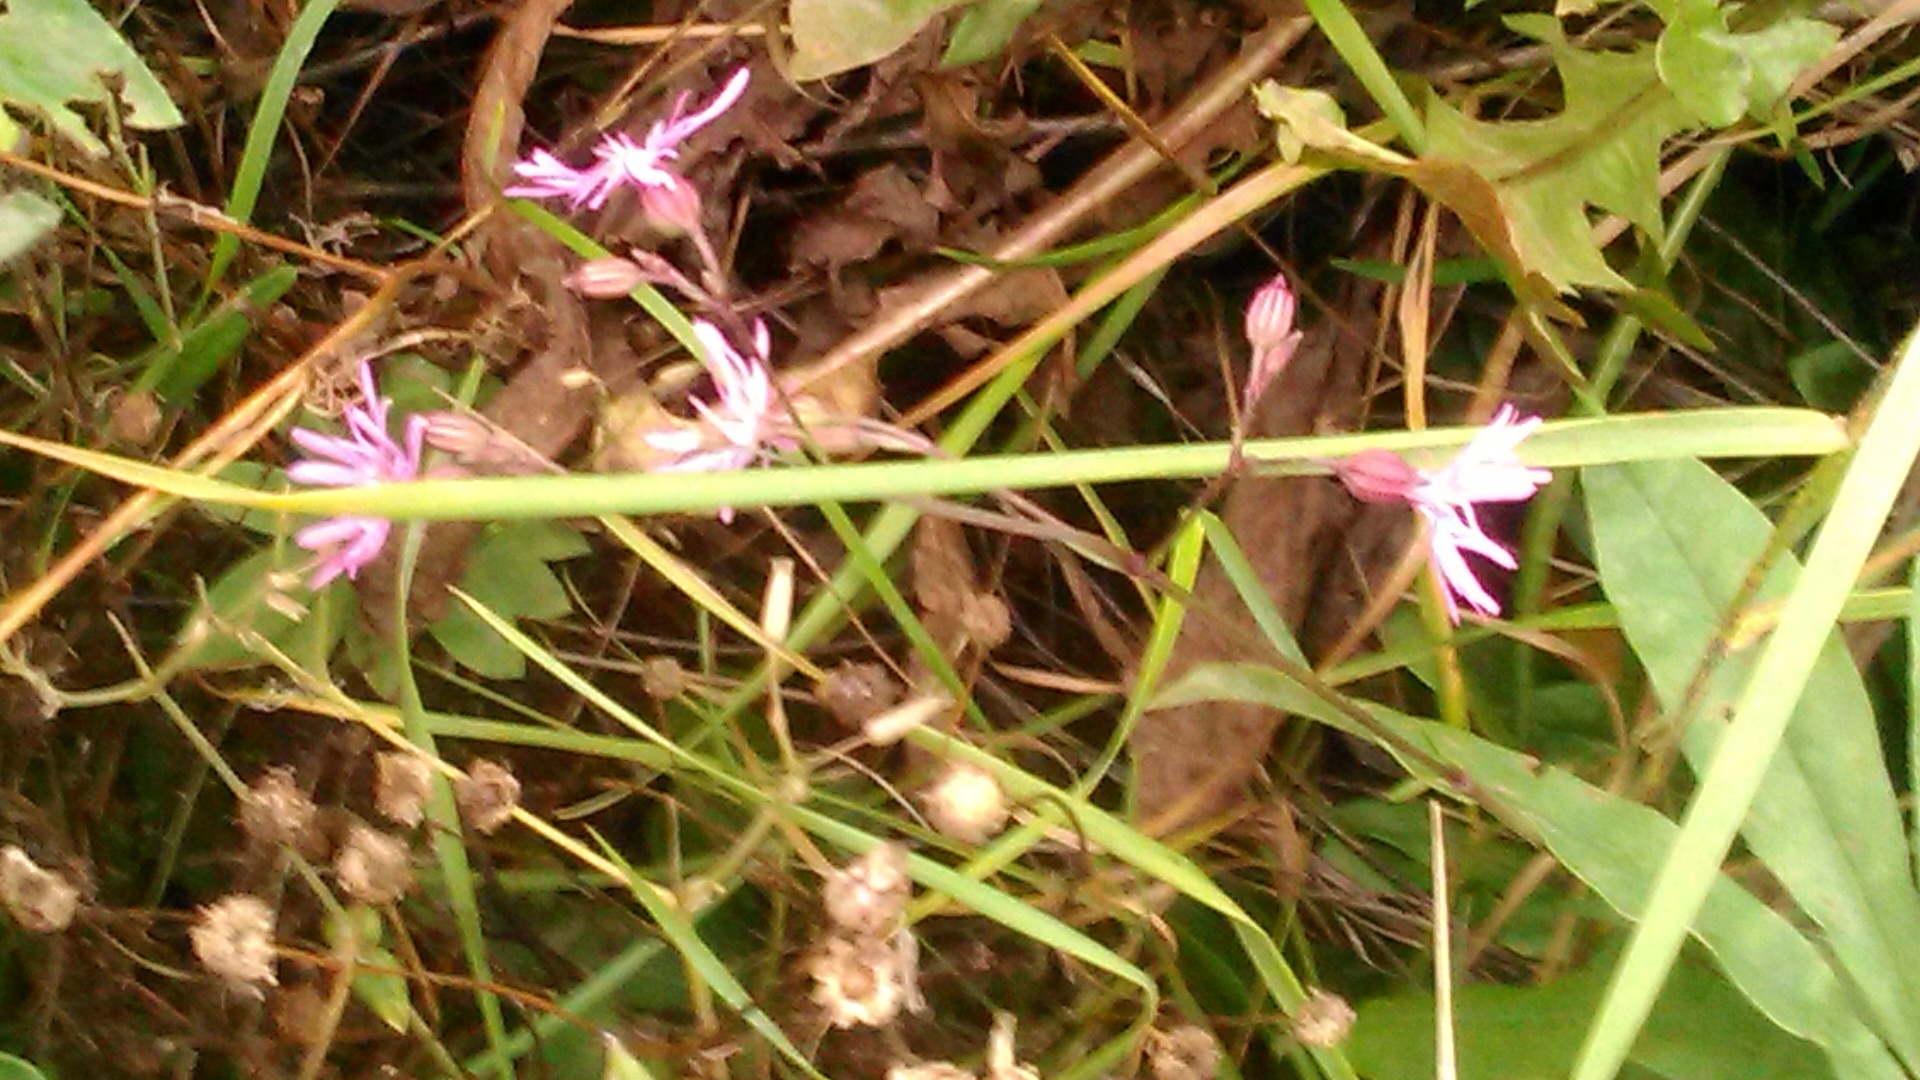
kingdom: Plantae
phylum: Tracheophyta
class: Magnoliopsida
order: Caryophyllales
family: Caryophyllaceae
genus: Silene
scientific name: Silene flos-cuculi
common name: Ragged-robin
